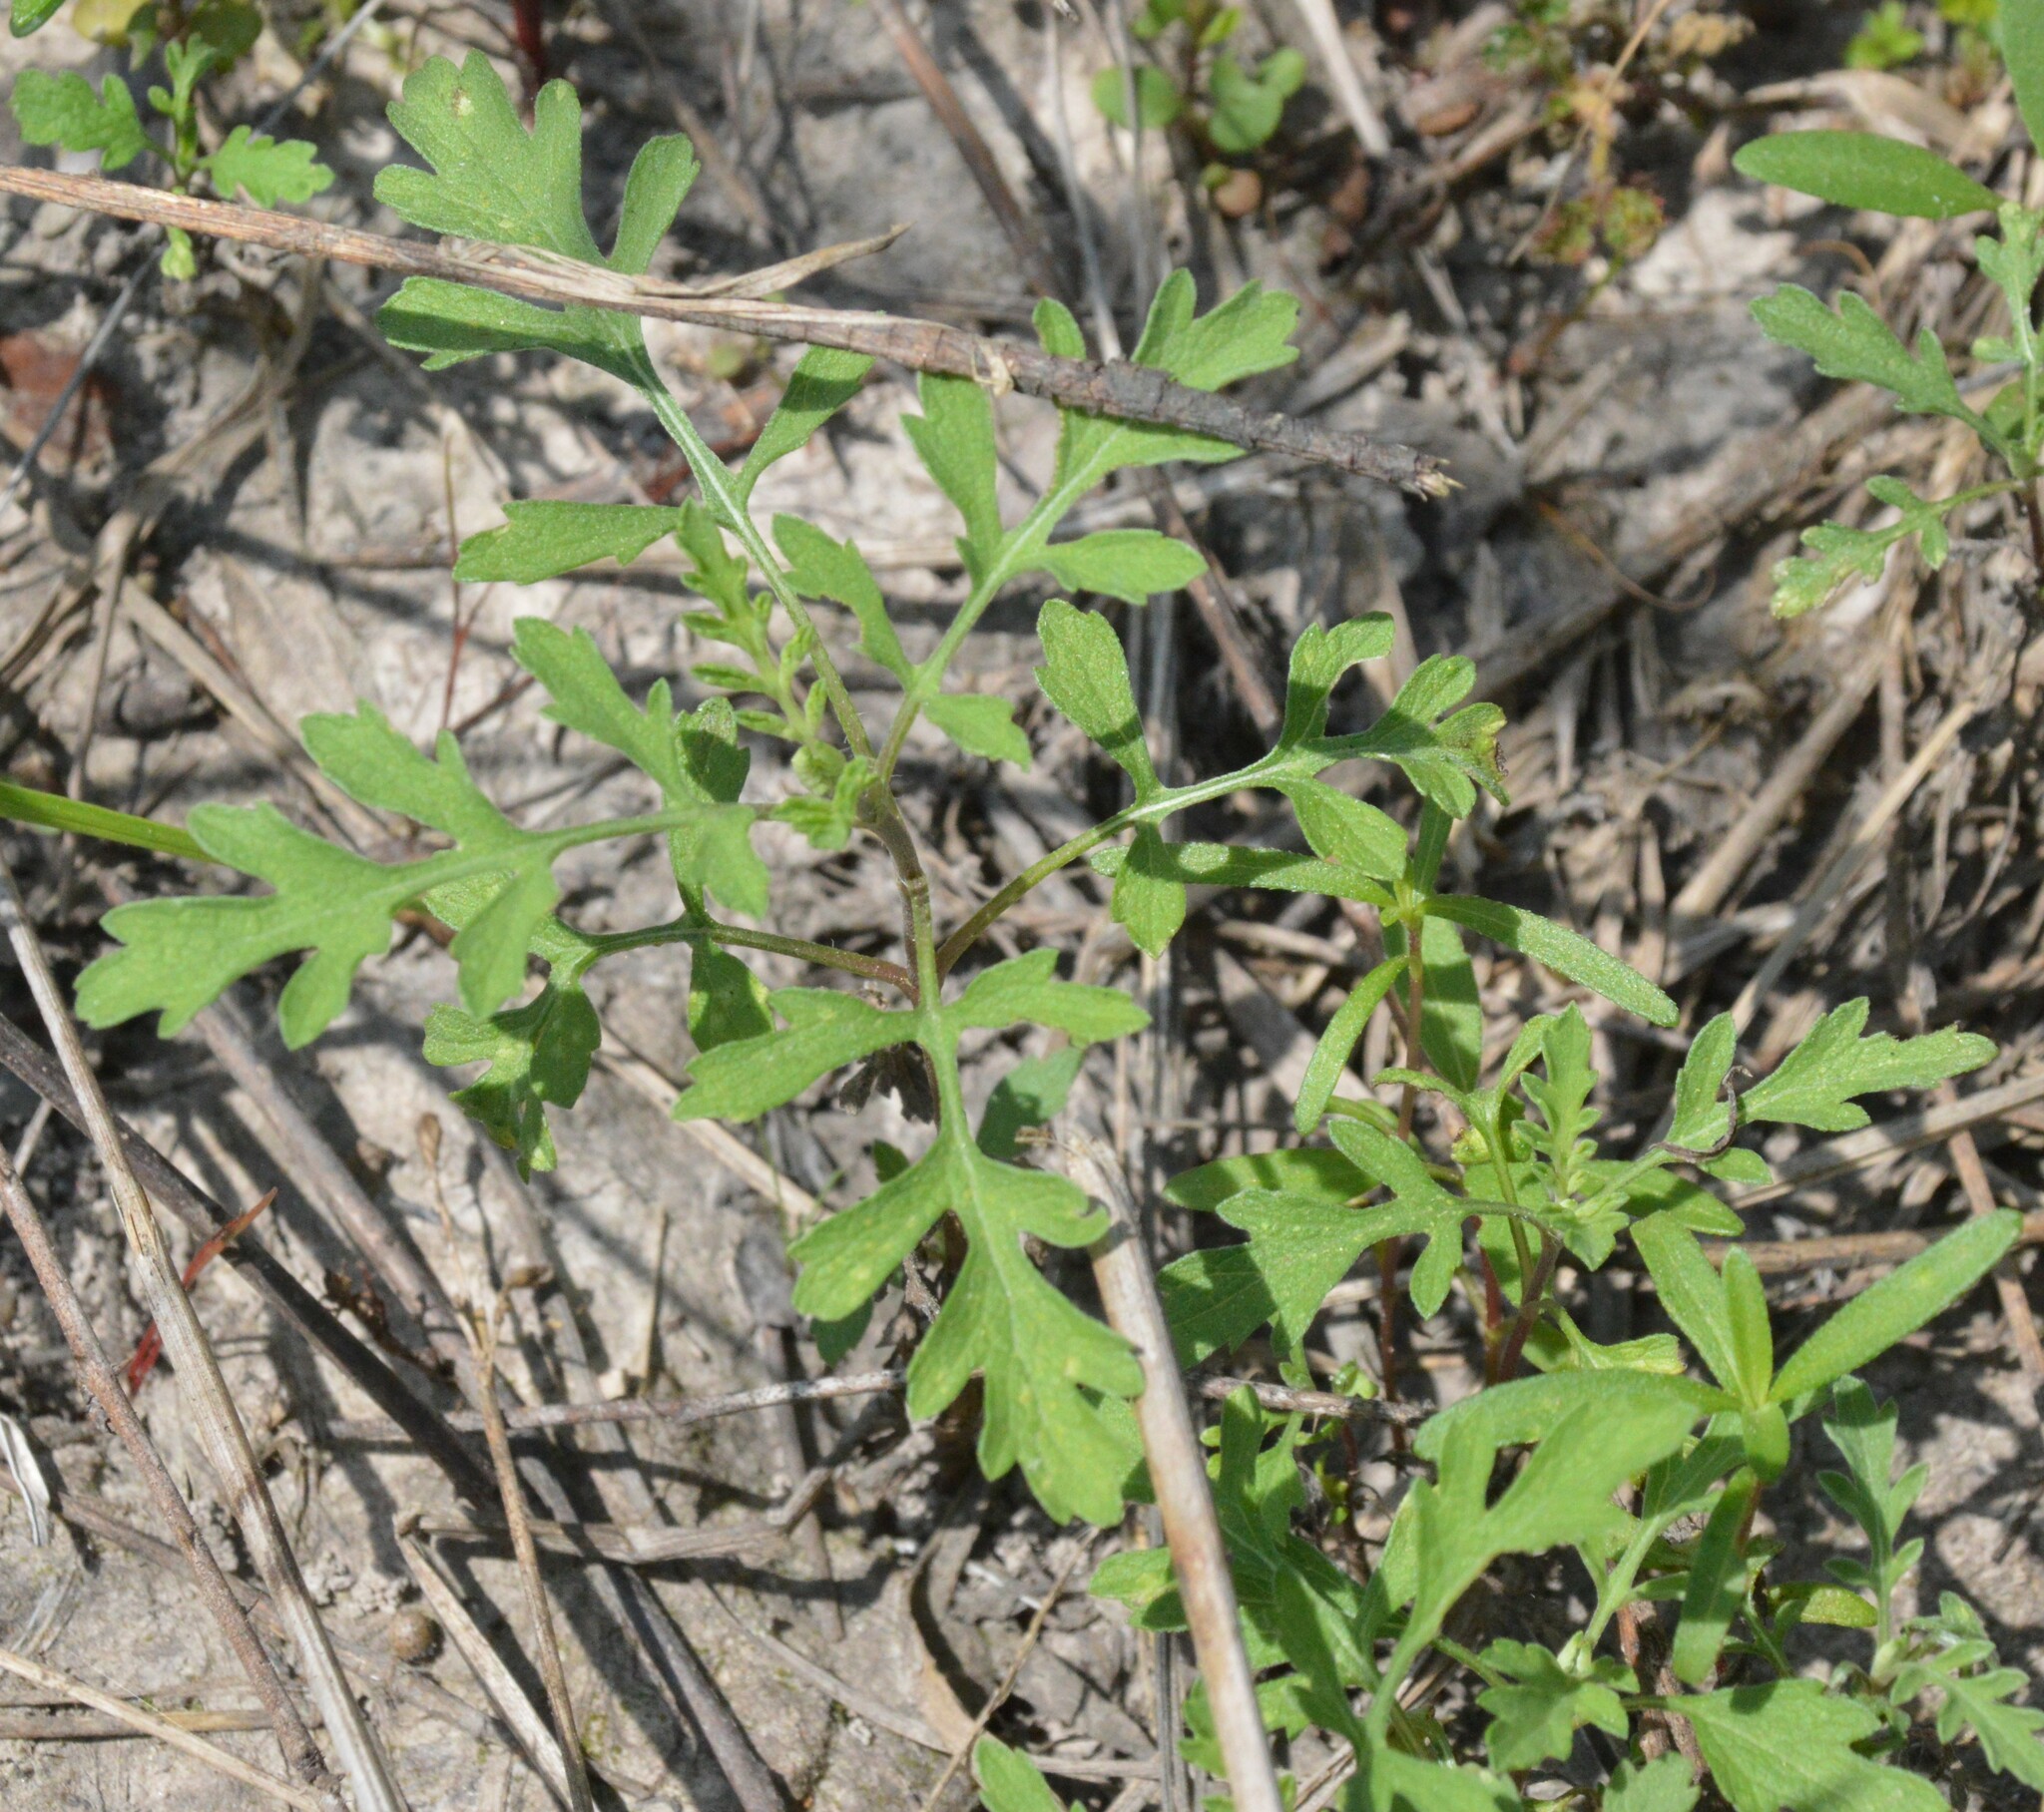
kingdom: Plantae
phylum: Tracheophyta
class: Magnoliopsida
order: Asterales
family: Asteraceae
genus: Ambrosia
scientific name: Ambrosia psilostachya
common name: Perennial ragweed
